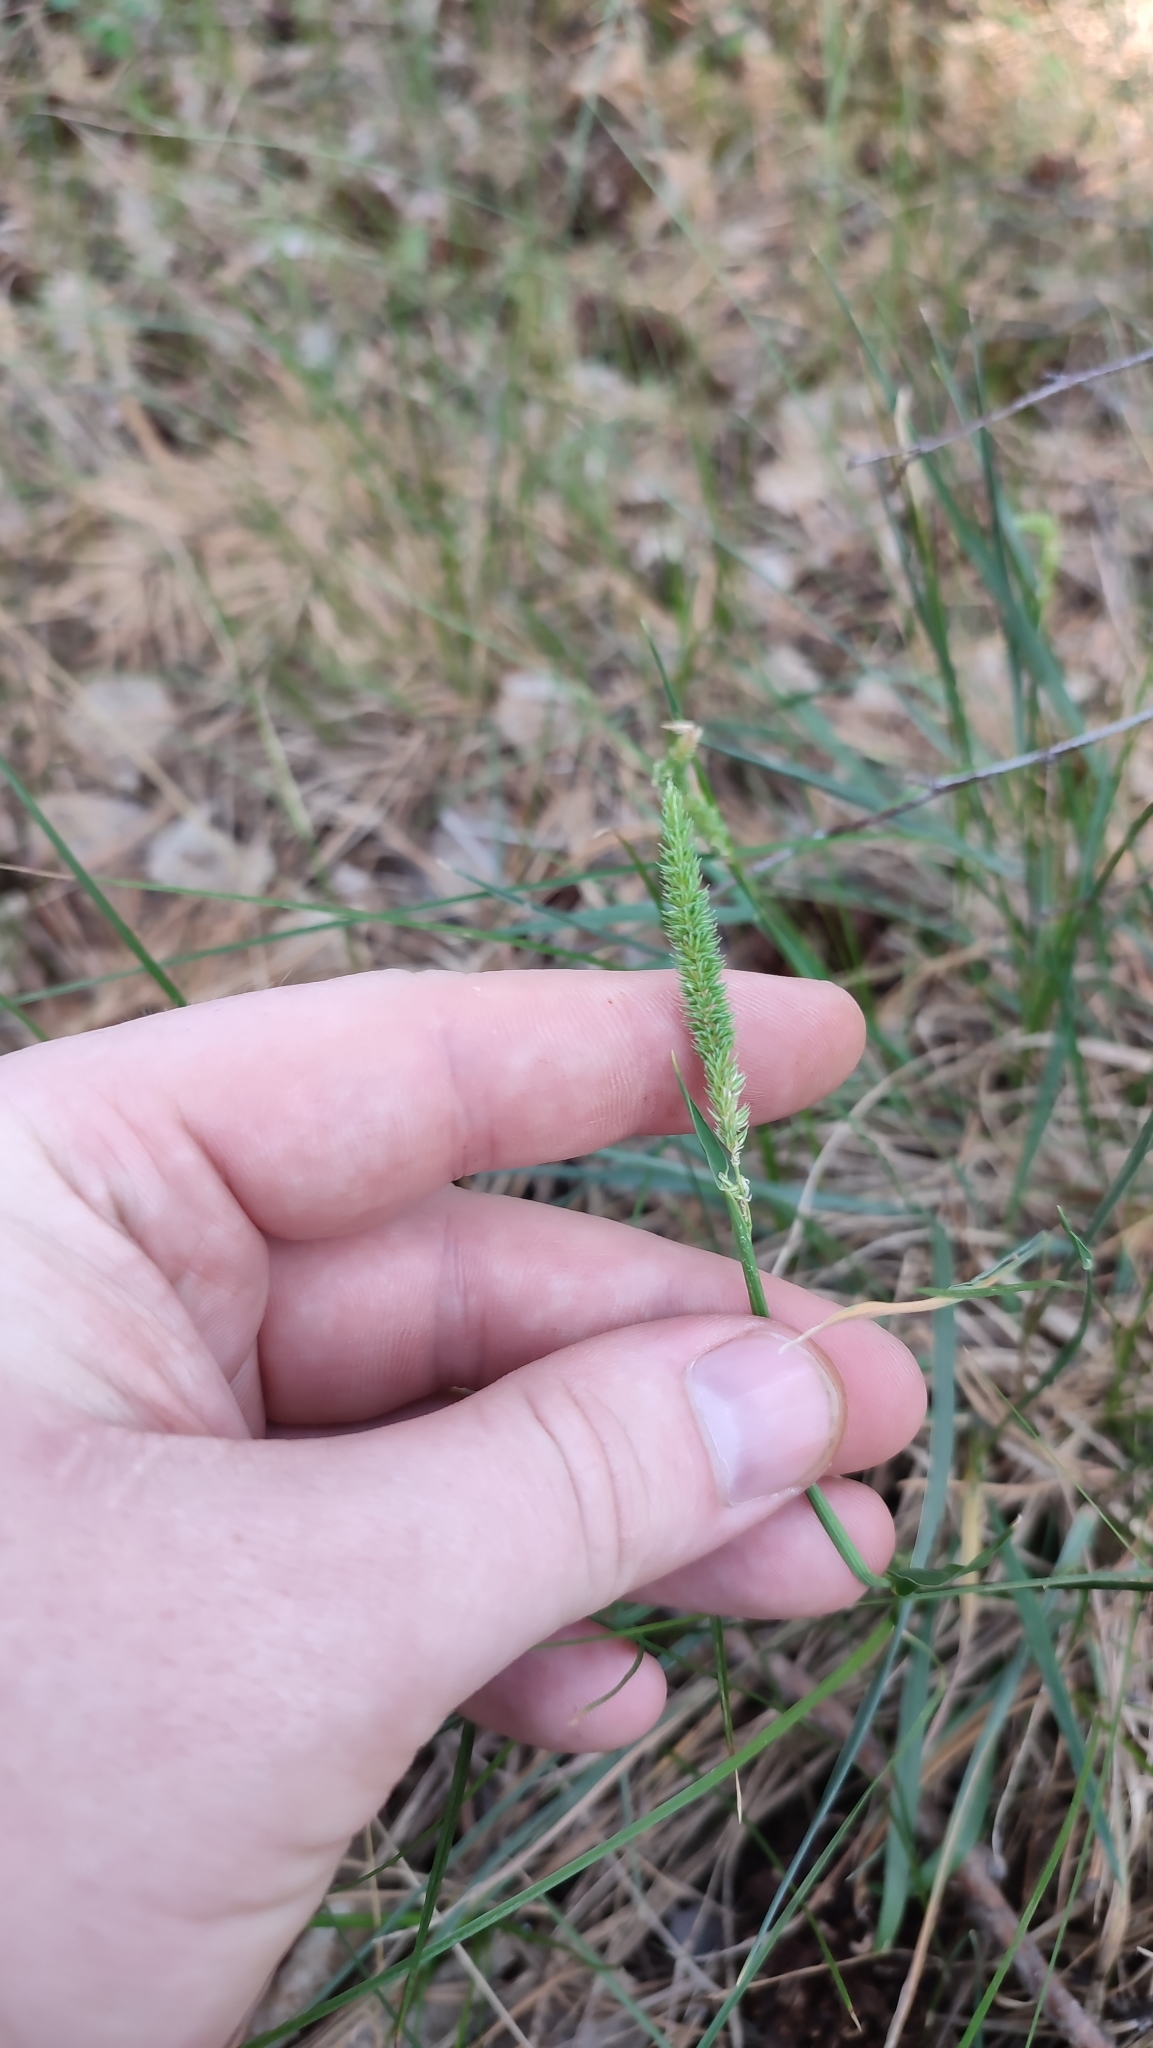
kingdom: Plantae
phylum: Tracheophyta
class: Liliopsida
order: Poales
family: Poaceae
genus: Phleum
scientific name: Phleum phleoides
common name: Purple-stem cat's-tail
